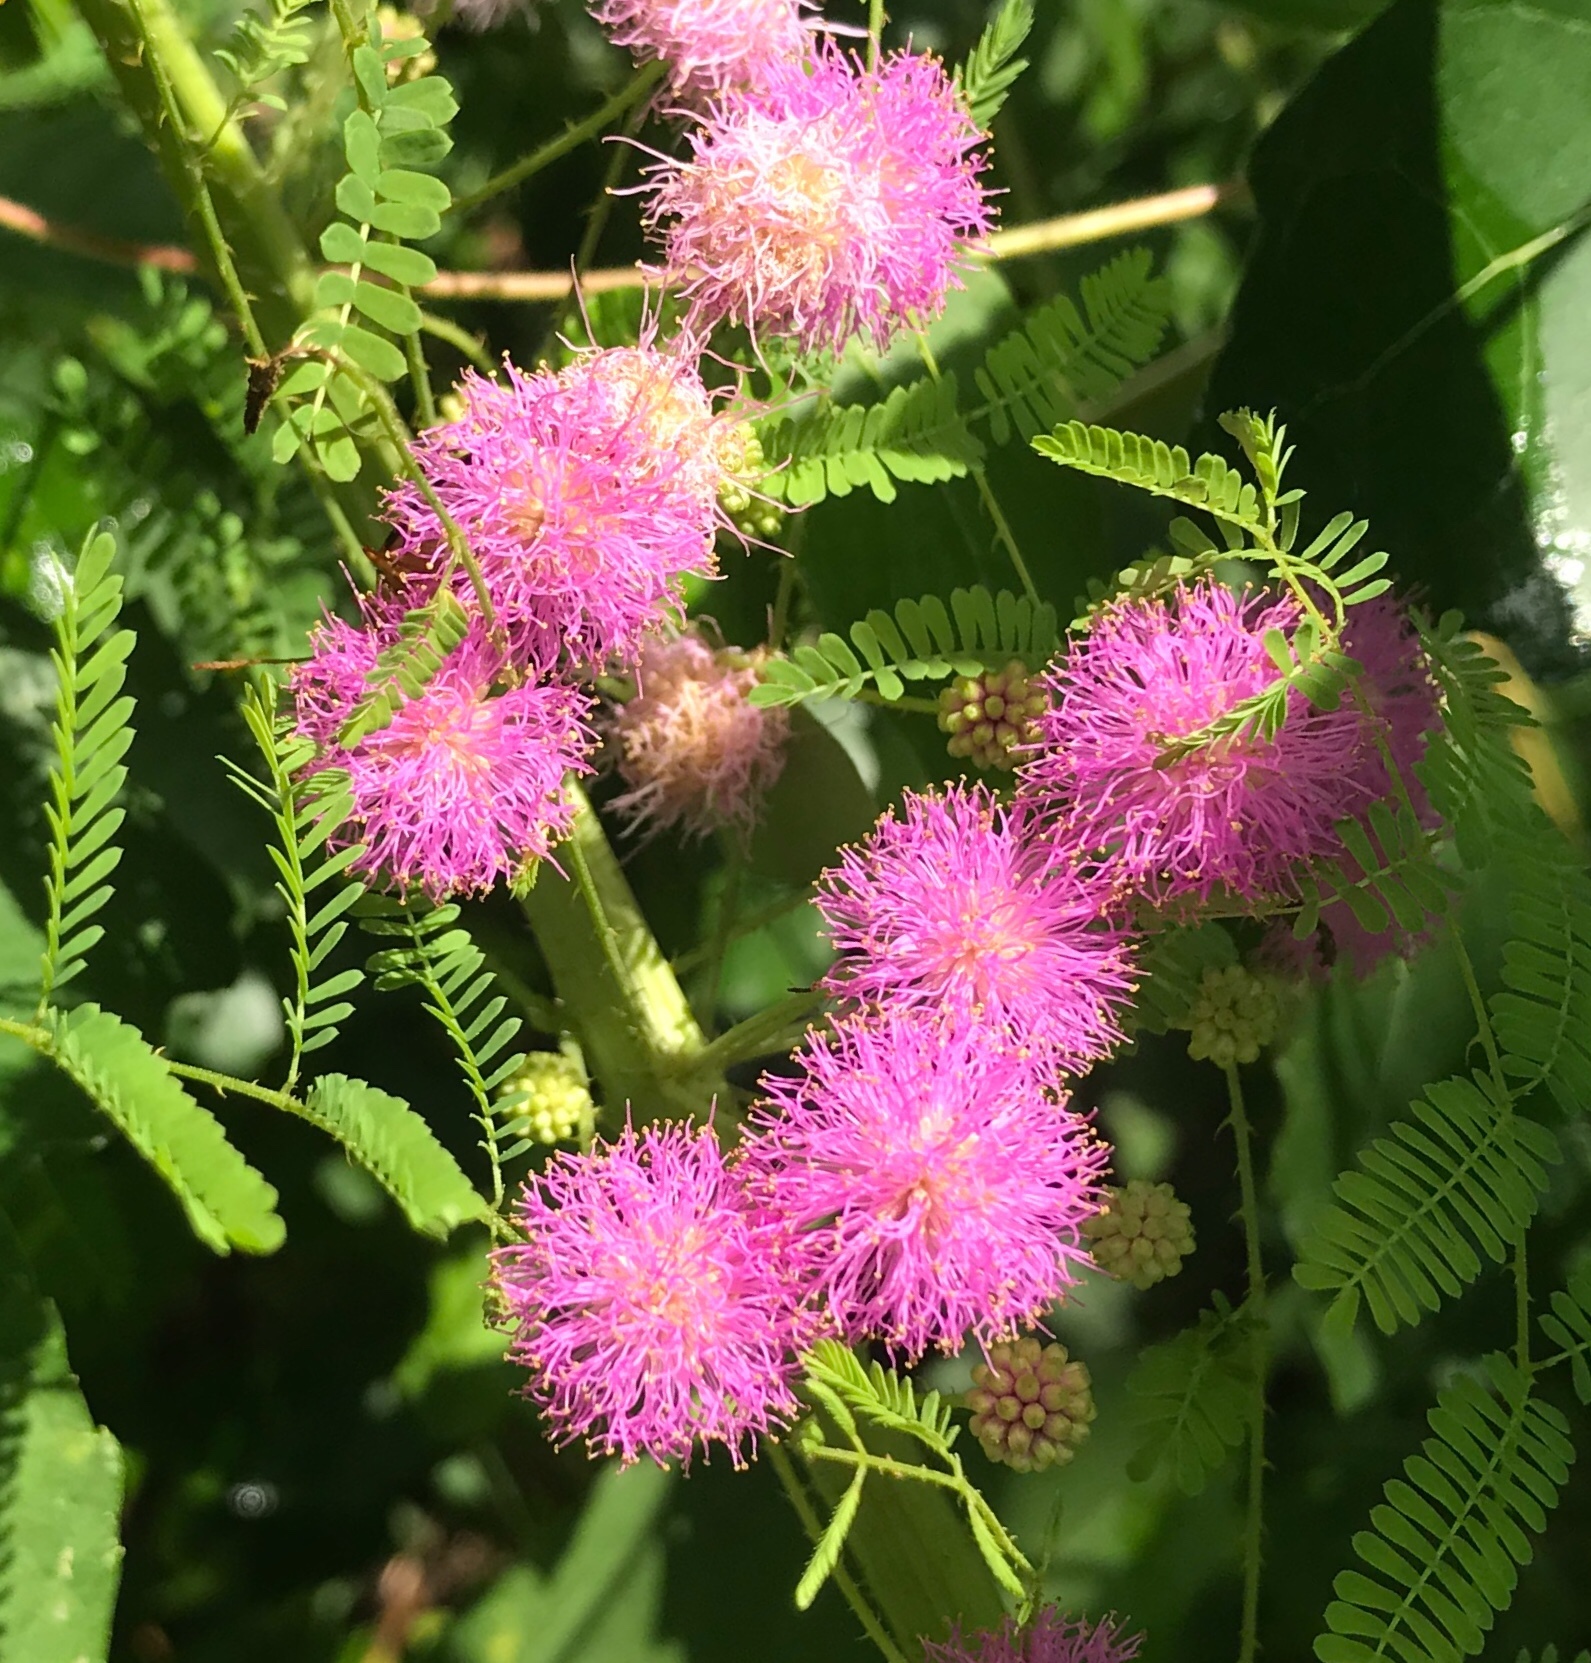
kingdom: Plantae
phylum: Tracheophyta
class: Magnoliopsida
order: Fabales
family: Fabaceae
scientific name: Fabaceae
